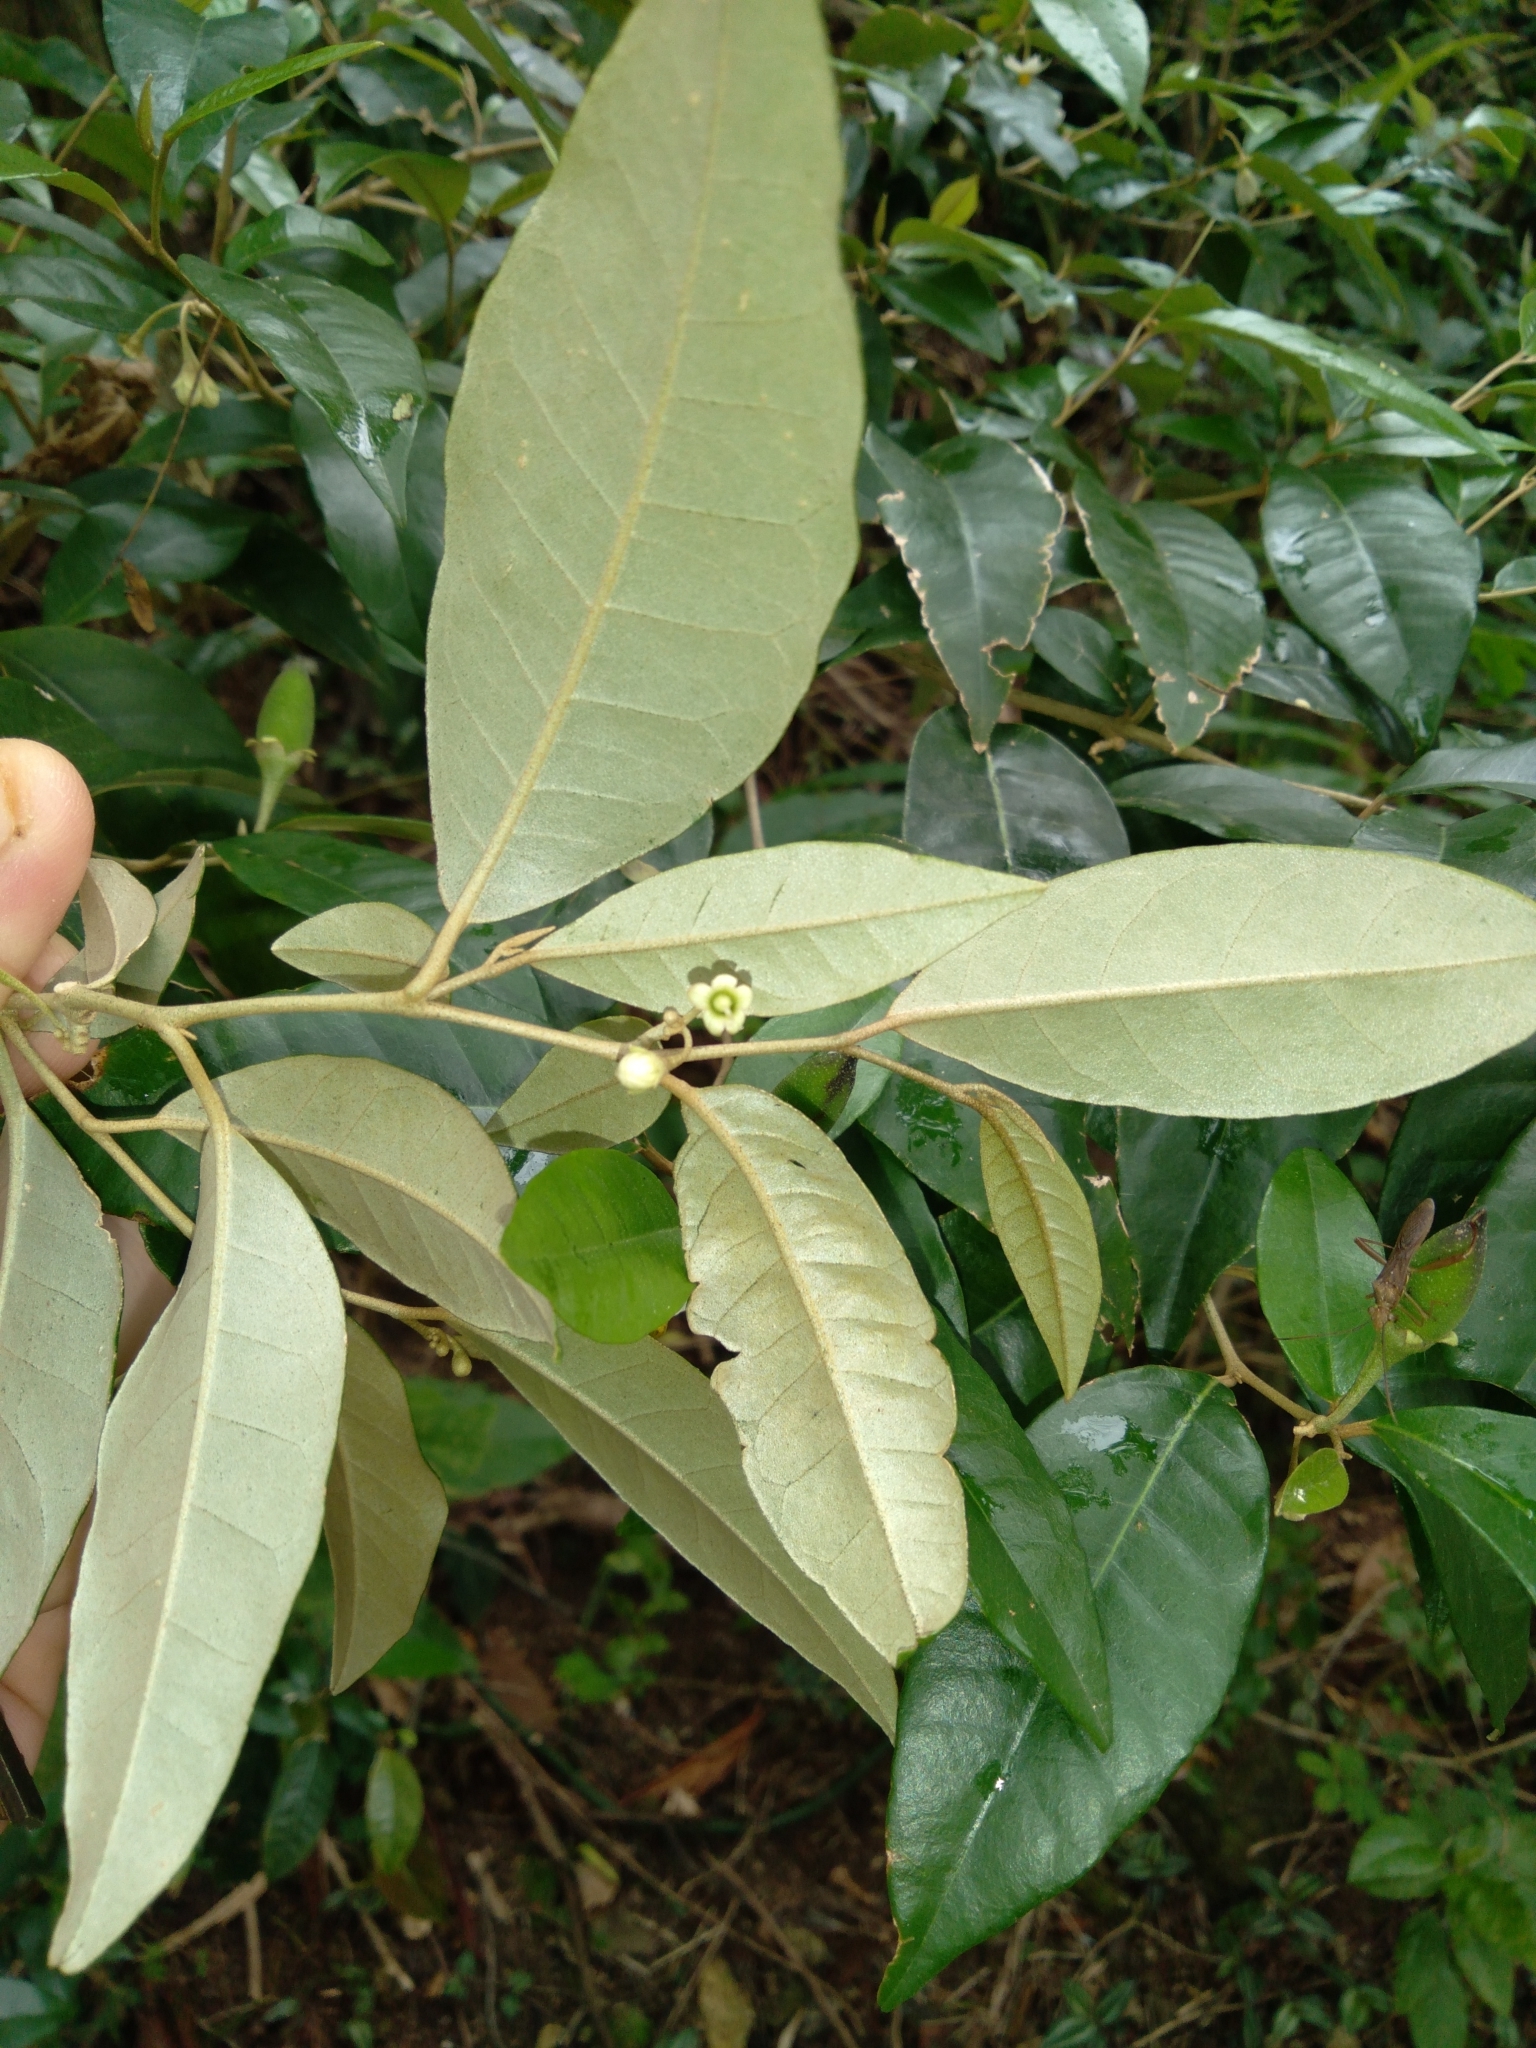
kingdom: Plantae
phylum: Tracheophyta
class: Magnoliopsida
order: Solanales
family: Solanaceae
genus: Solanum
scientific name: Solanum argenteum
